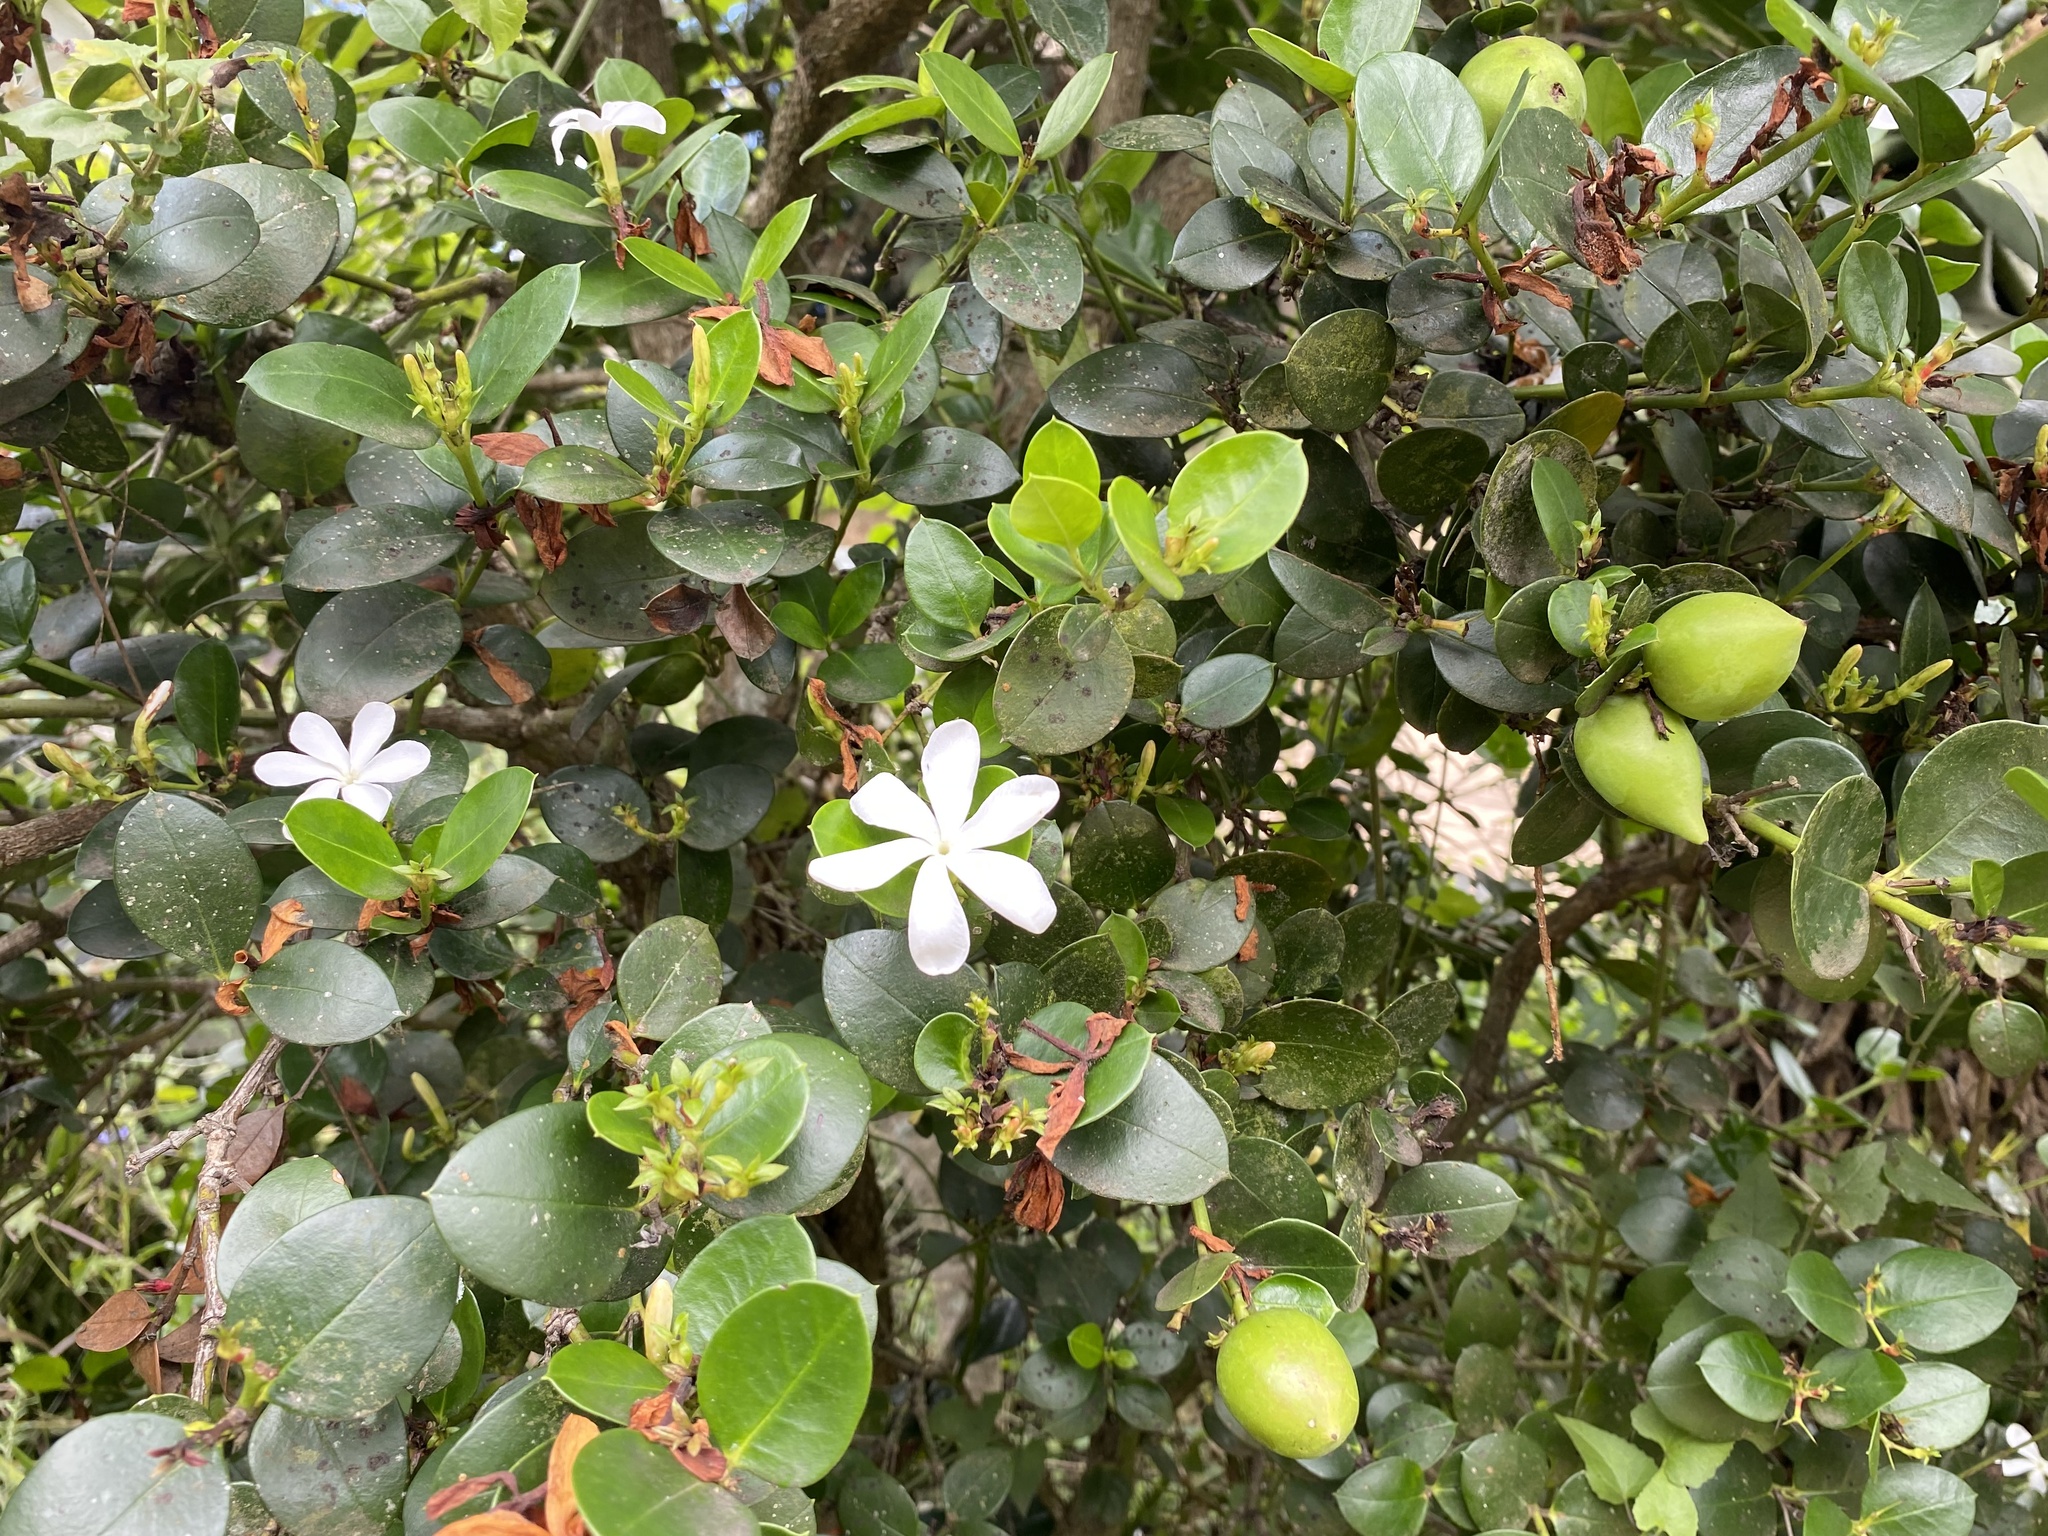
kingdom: Plantae
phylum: Tracheophyta
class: Magnoliopsida
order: Gentianales
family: Apocynaceae
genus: Carissa
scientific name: Carissa macrocarpa
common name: Natal plum
